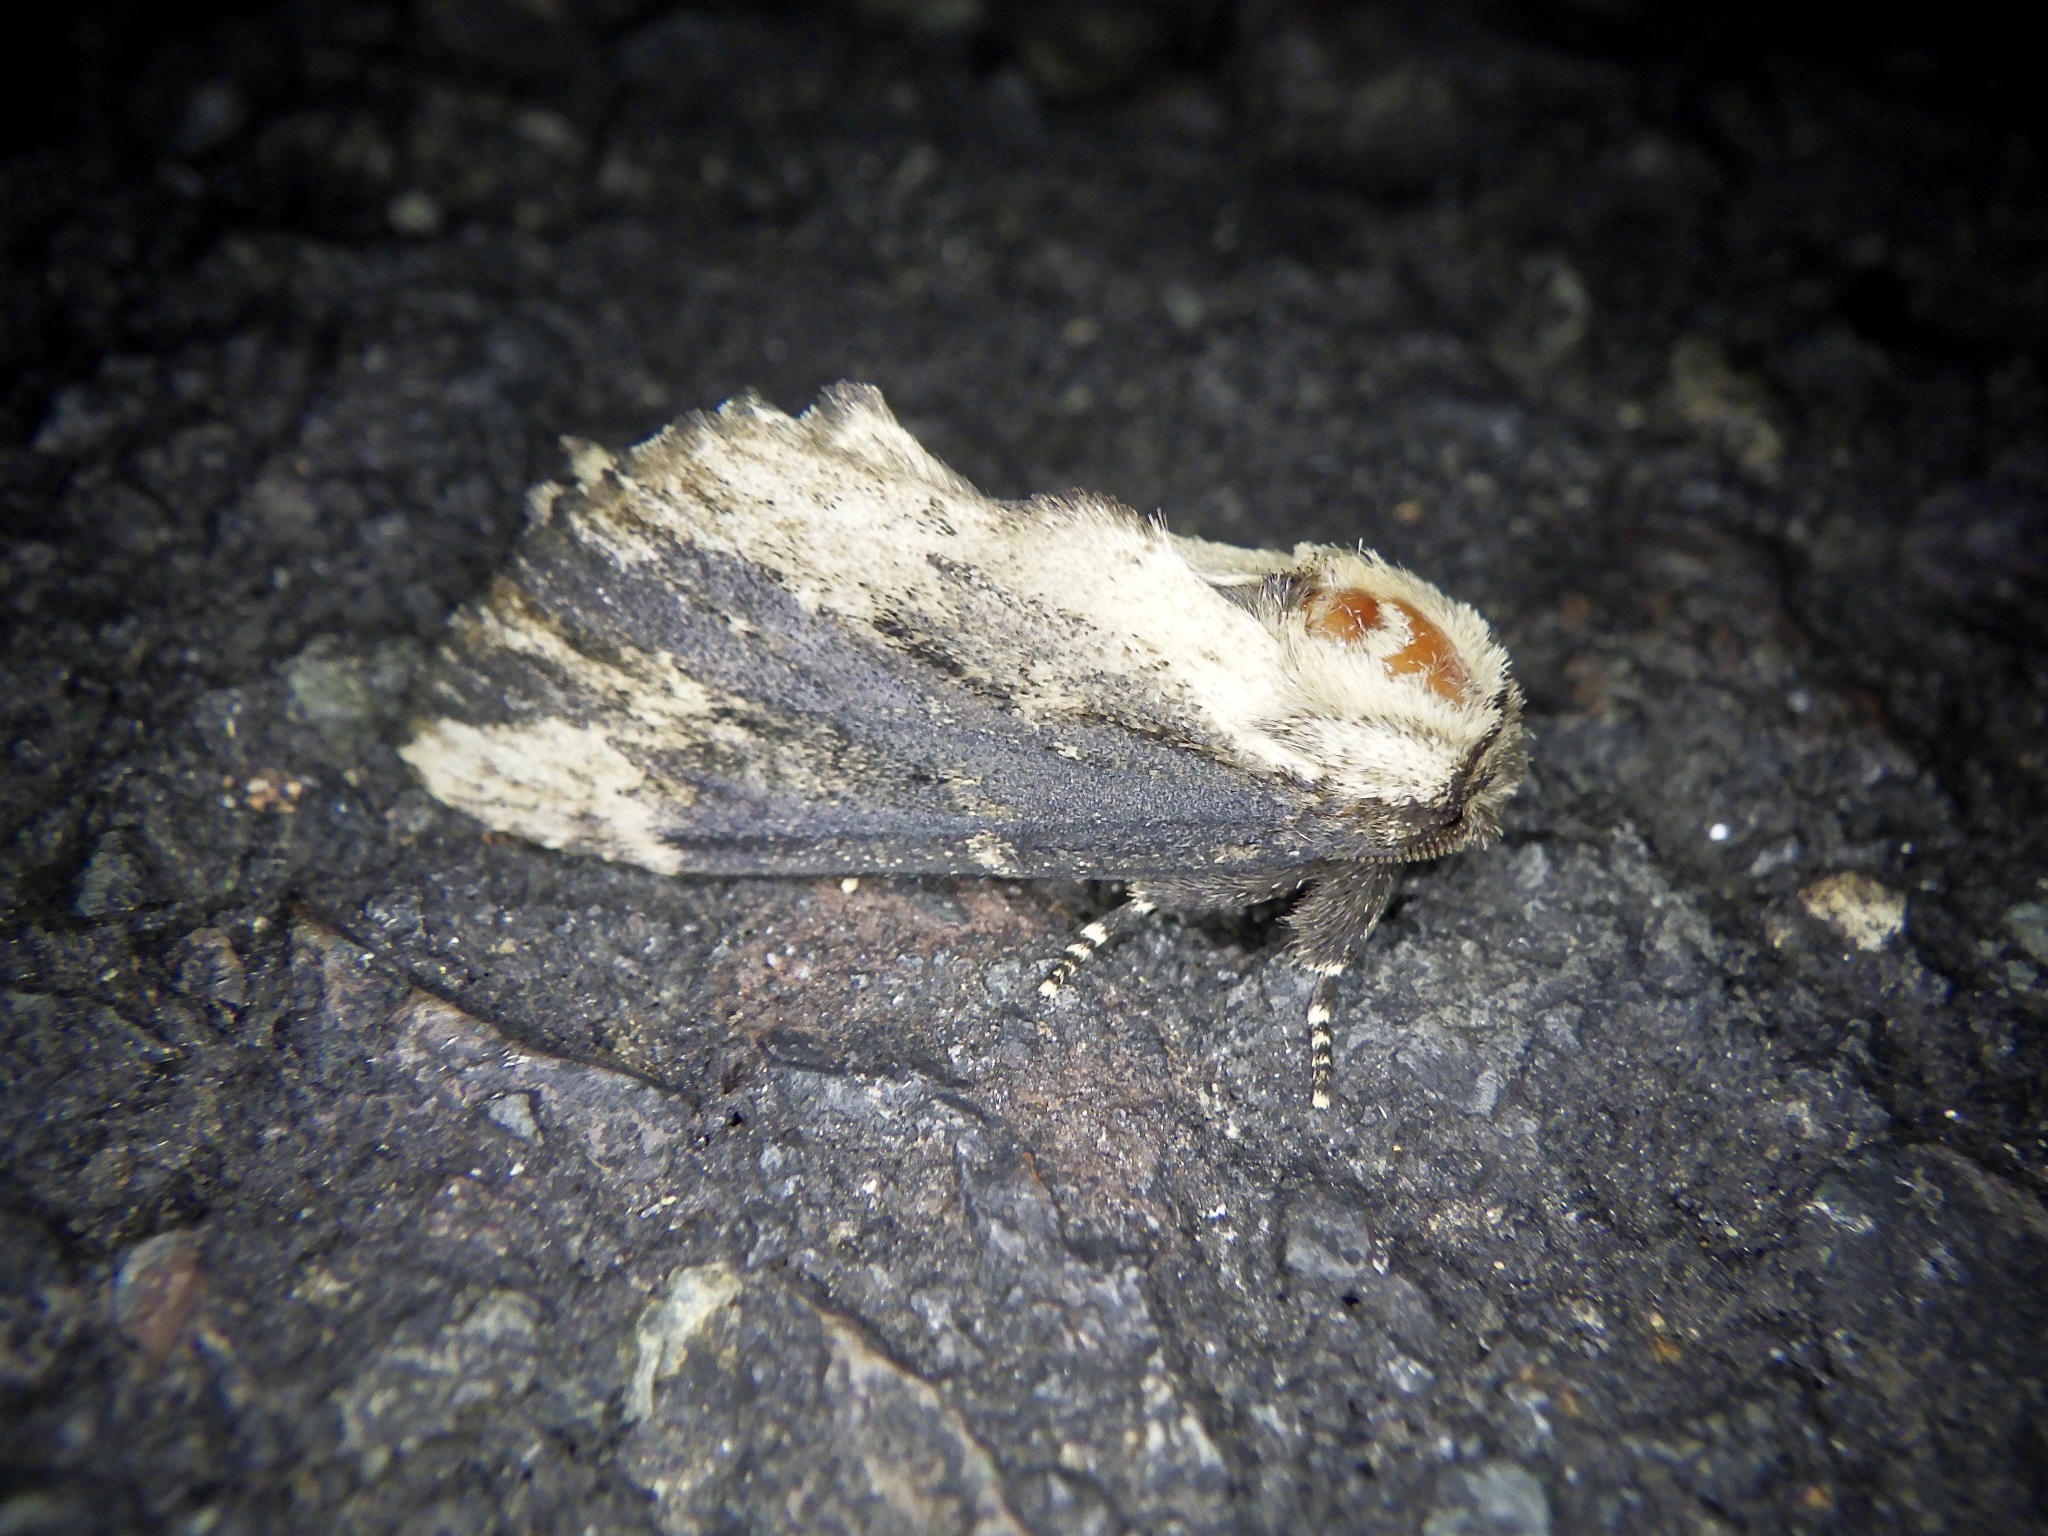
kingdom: Animalia
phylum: Arthropoda
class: Insecta
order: Lepidoptera
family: Notodontidae
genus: Hiradonta
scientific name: Hiradonta takaonis
